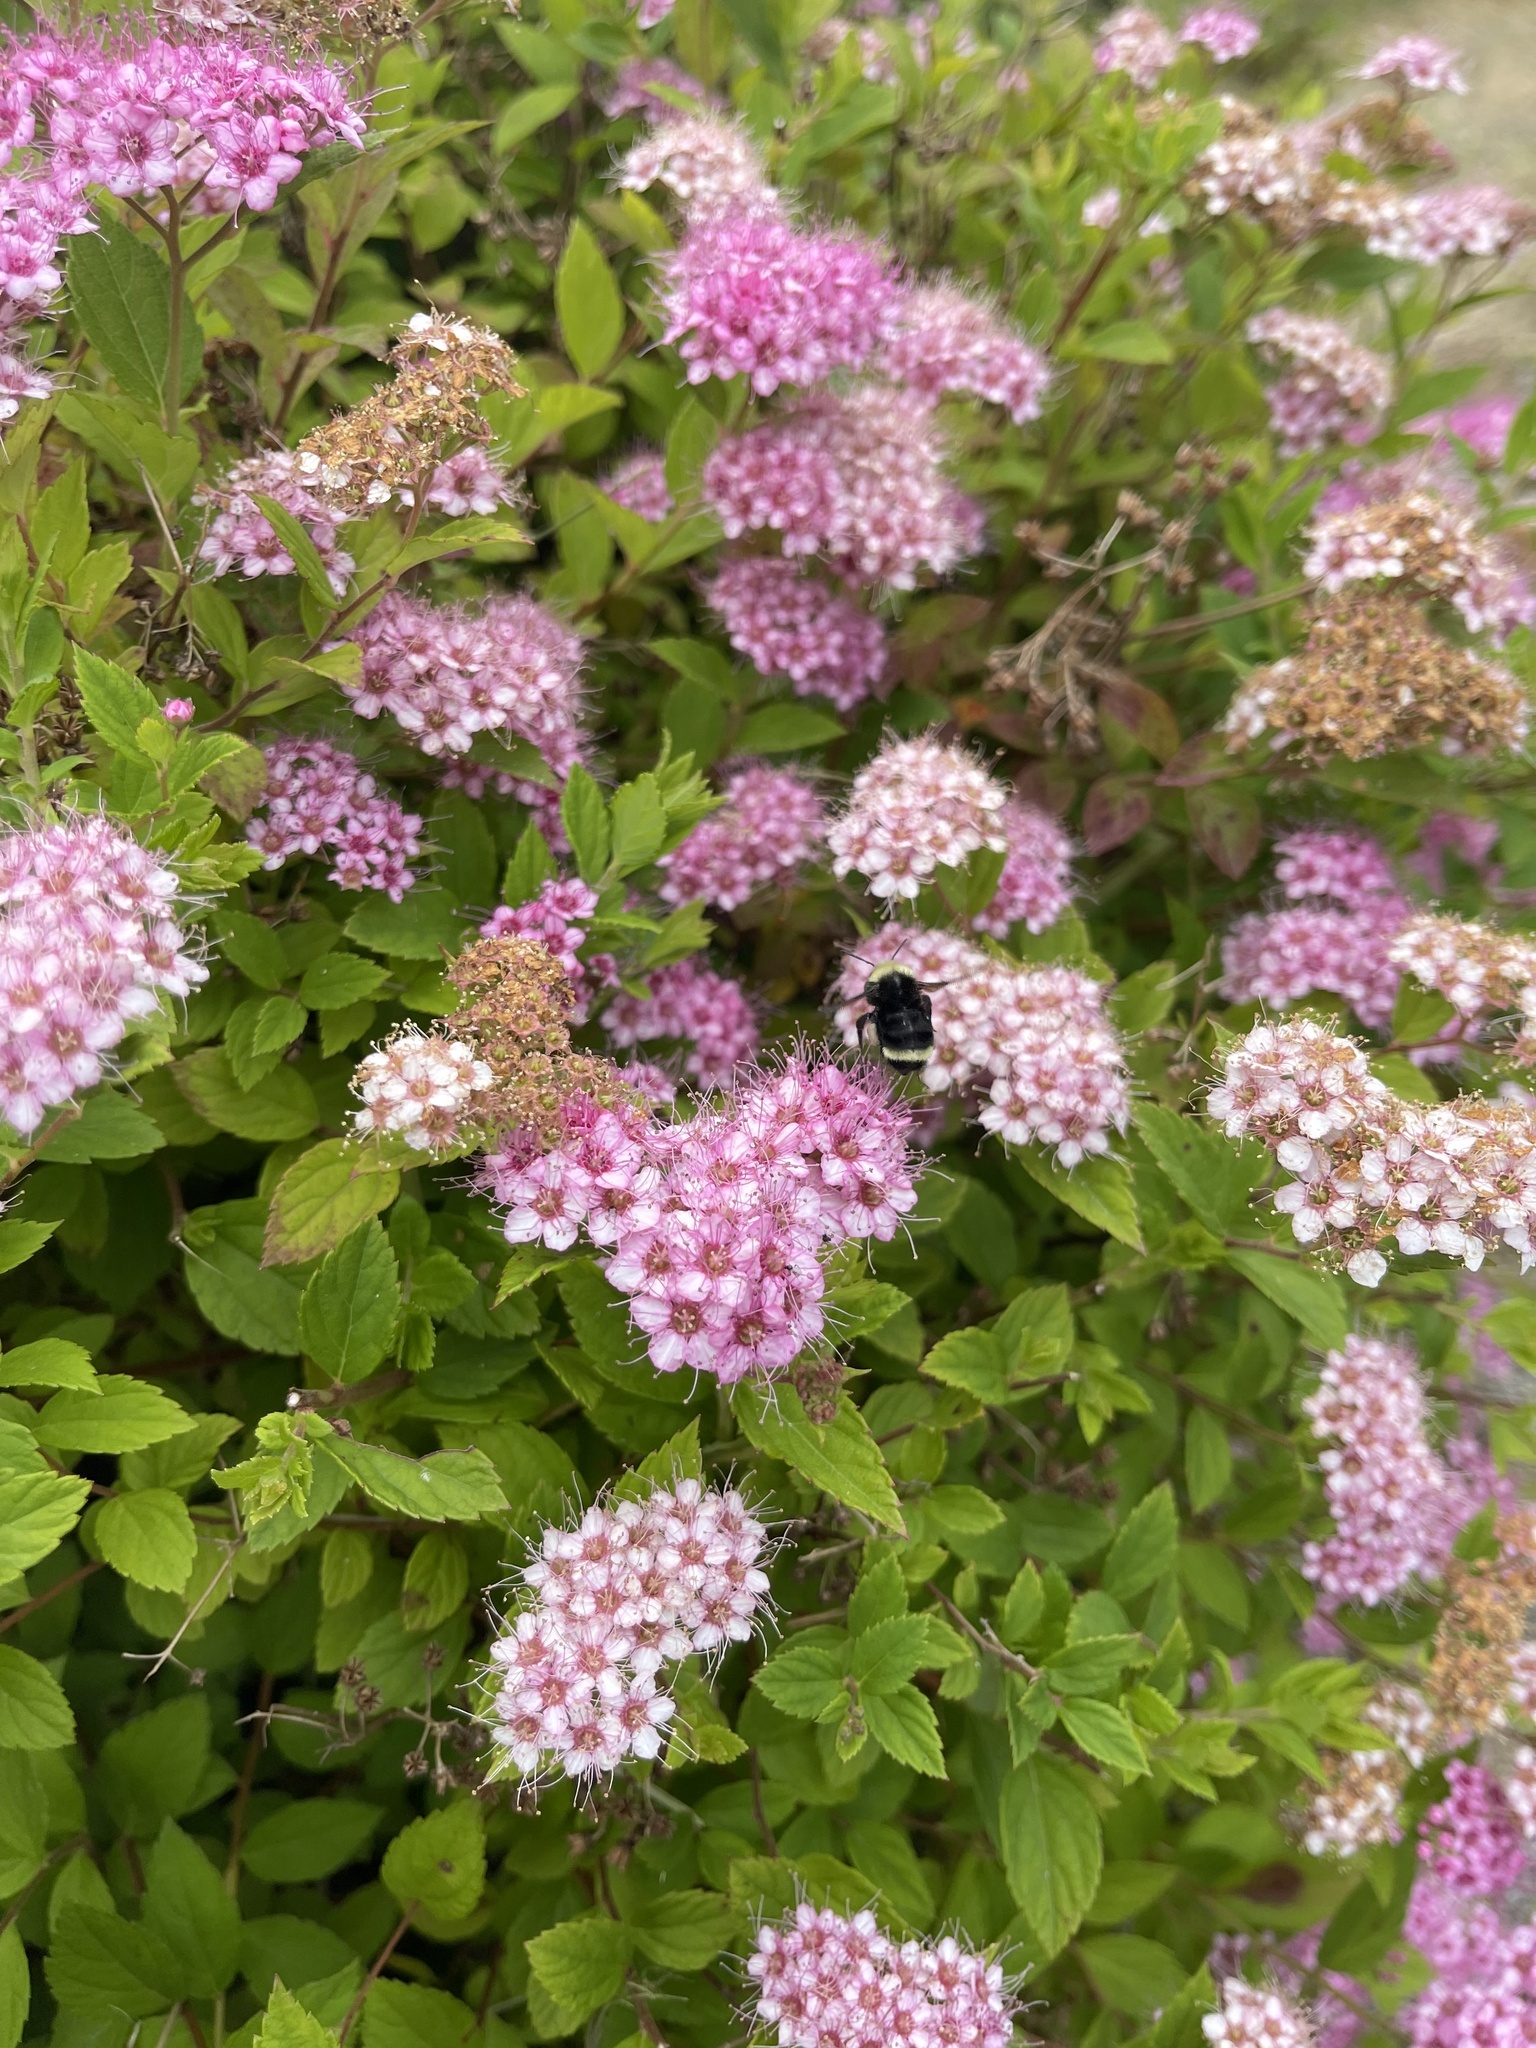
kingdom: Animalia
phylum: Arthropoda
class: Insecta
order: Hymenoptera
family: Apidae
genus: Bombus
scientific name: Bombus vosnesenskii
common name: Vosnesensky bumble bee
